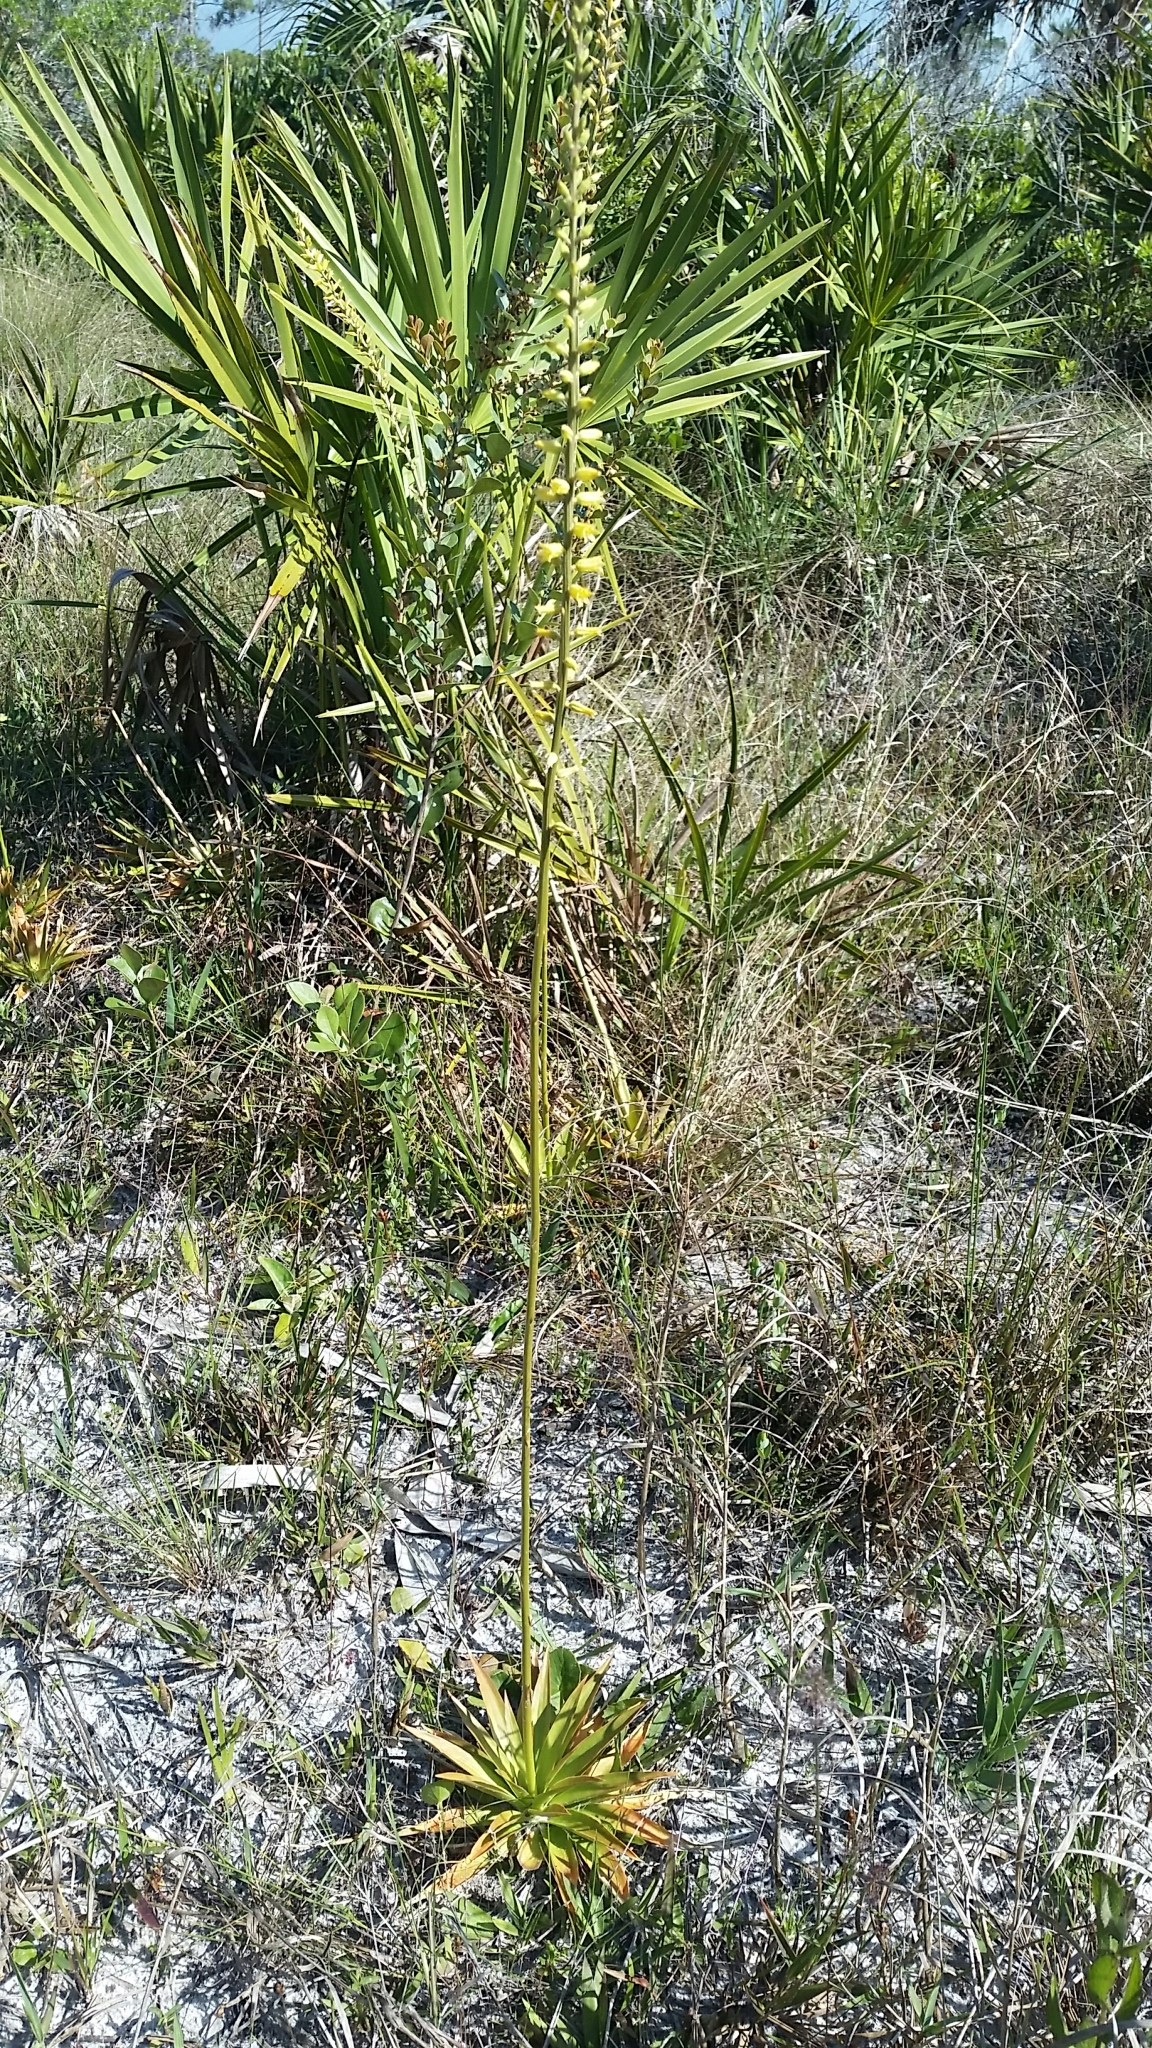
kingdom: Plantae
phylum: Tracheophyta
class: Liliopsida
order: Dioscoreales
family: Nartheciaceae
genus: Aletris
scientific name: Aletris lutea
